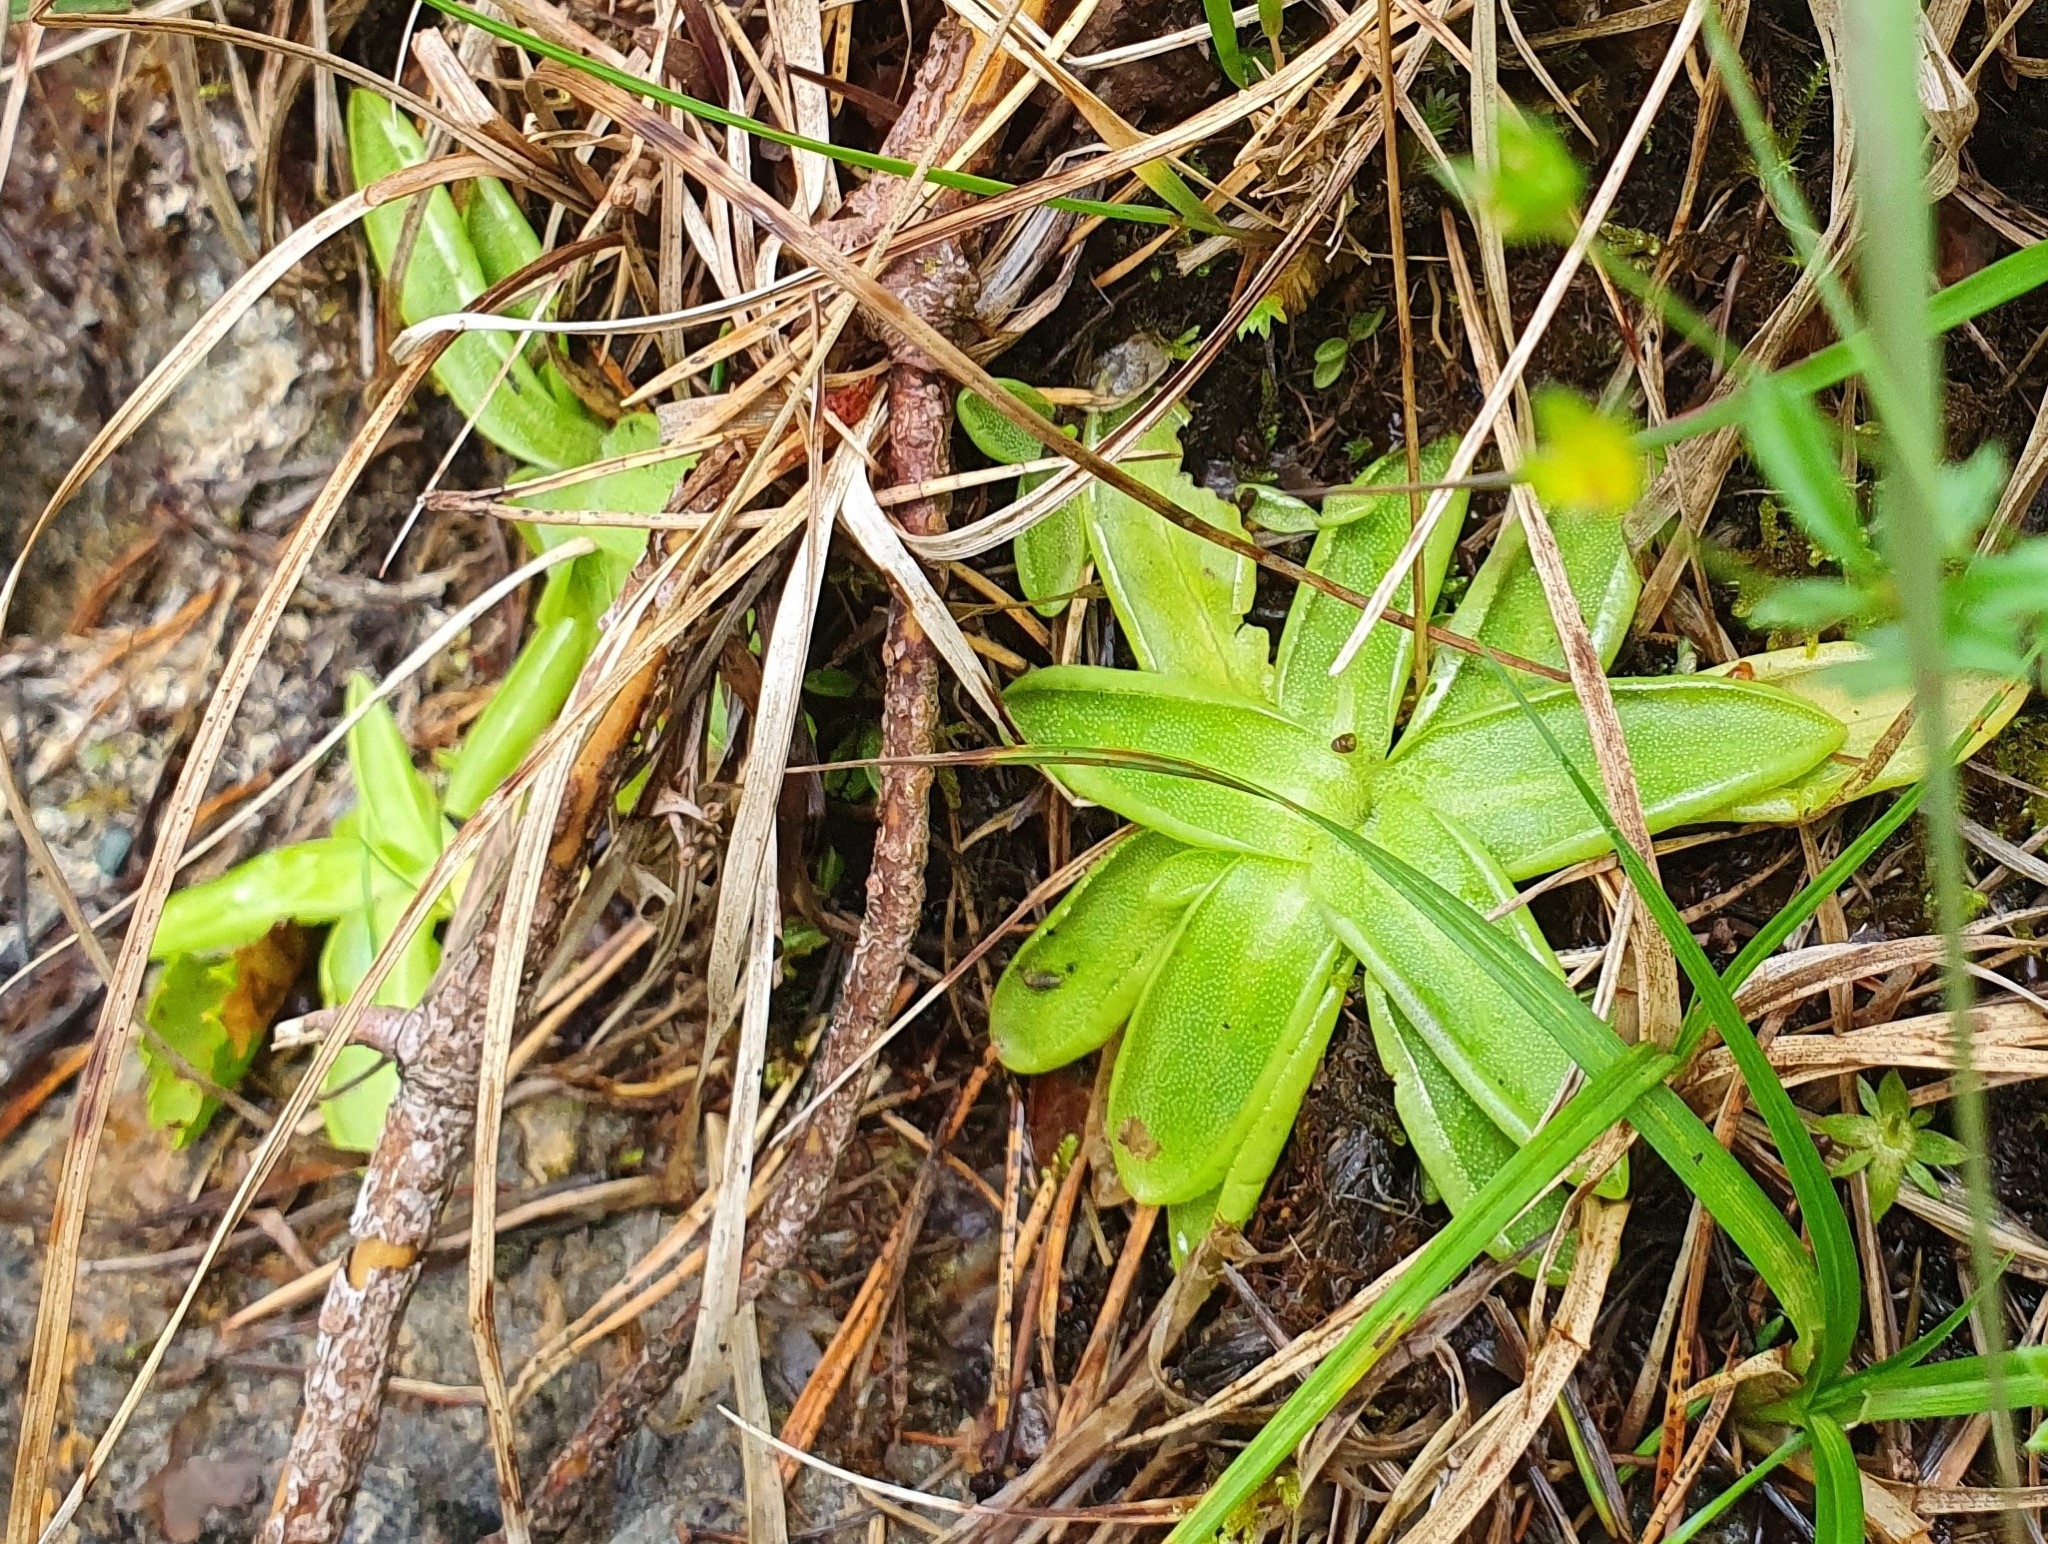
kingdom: Plantae
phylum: Tracheophyta
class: Magnoliopsida
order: Lamiales
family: Lentibulariaceae
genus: Pinguicula
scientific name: Pinguicula vulgaris
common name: Common butterwort
